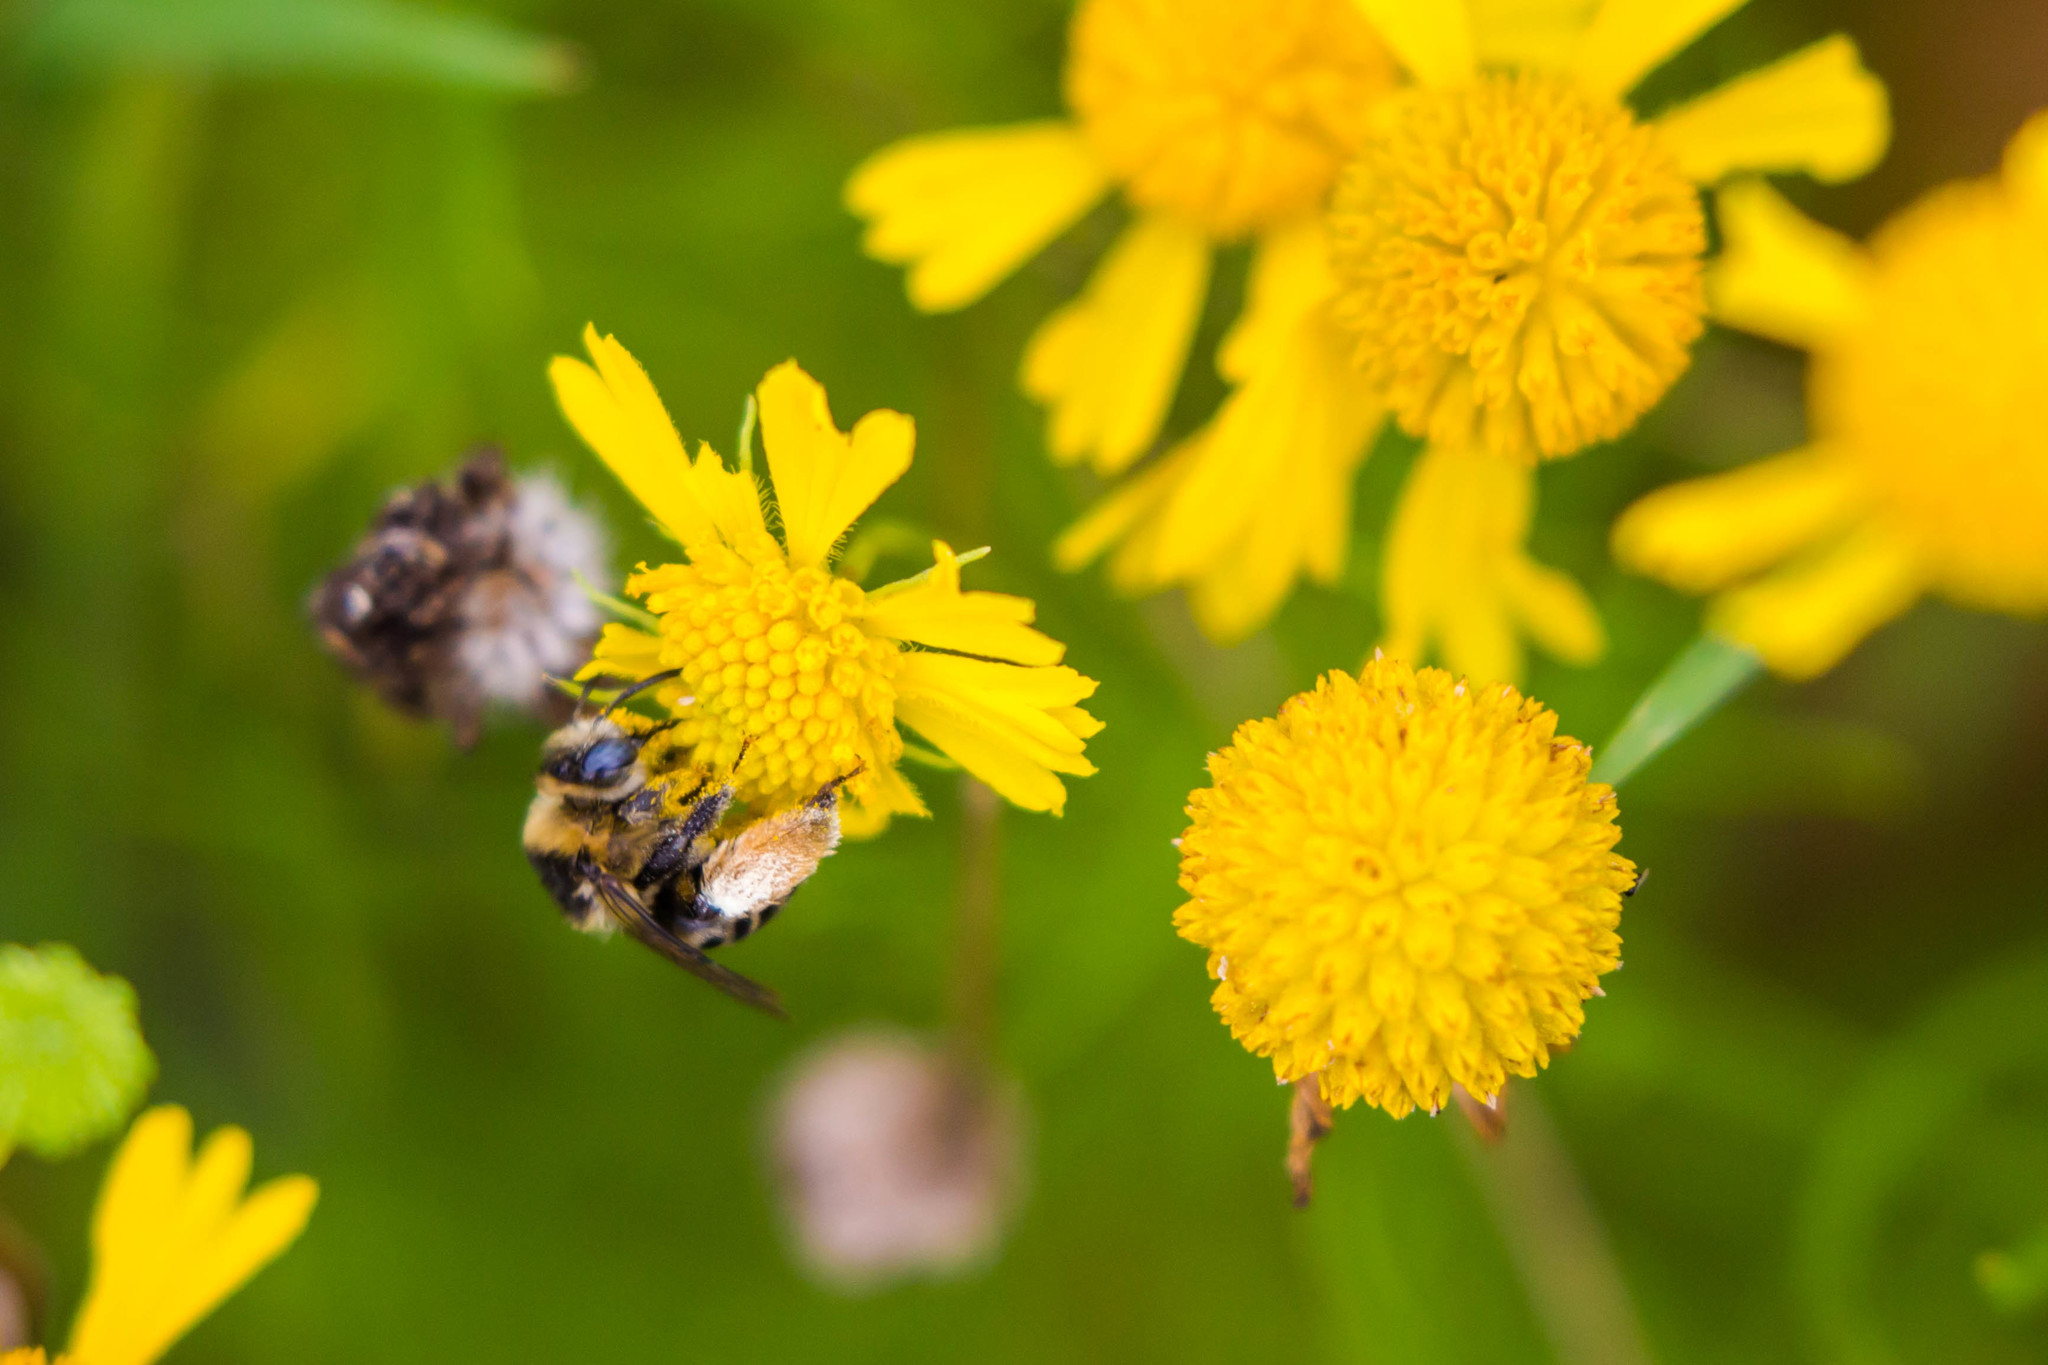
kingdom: Animalia
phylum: Arthropoda
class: Insecta
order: Hymenoptera
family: Apidae
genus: Melissodes
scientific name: Melissodes communis
